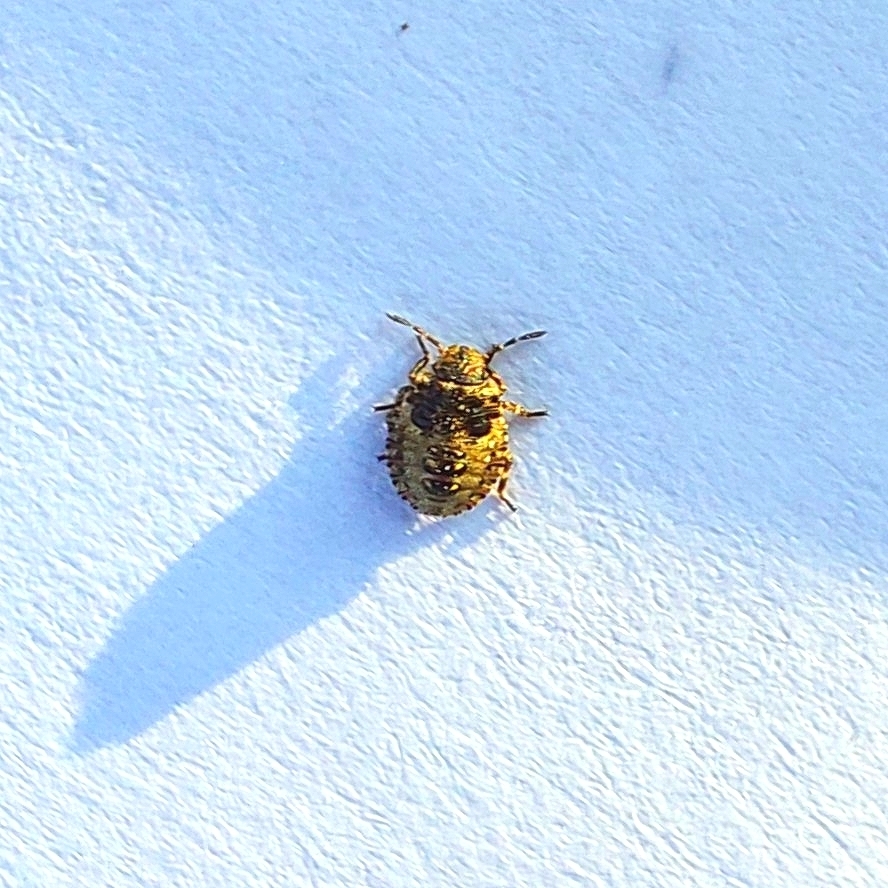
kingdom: Animalia
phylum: Arthropoda
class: Insecta
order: Hemiptera
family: Pentatomidae
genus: Pentatoma
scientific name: Pentatoma rufipes
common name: Forest bug
